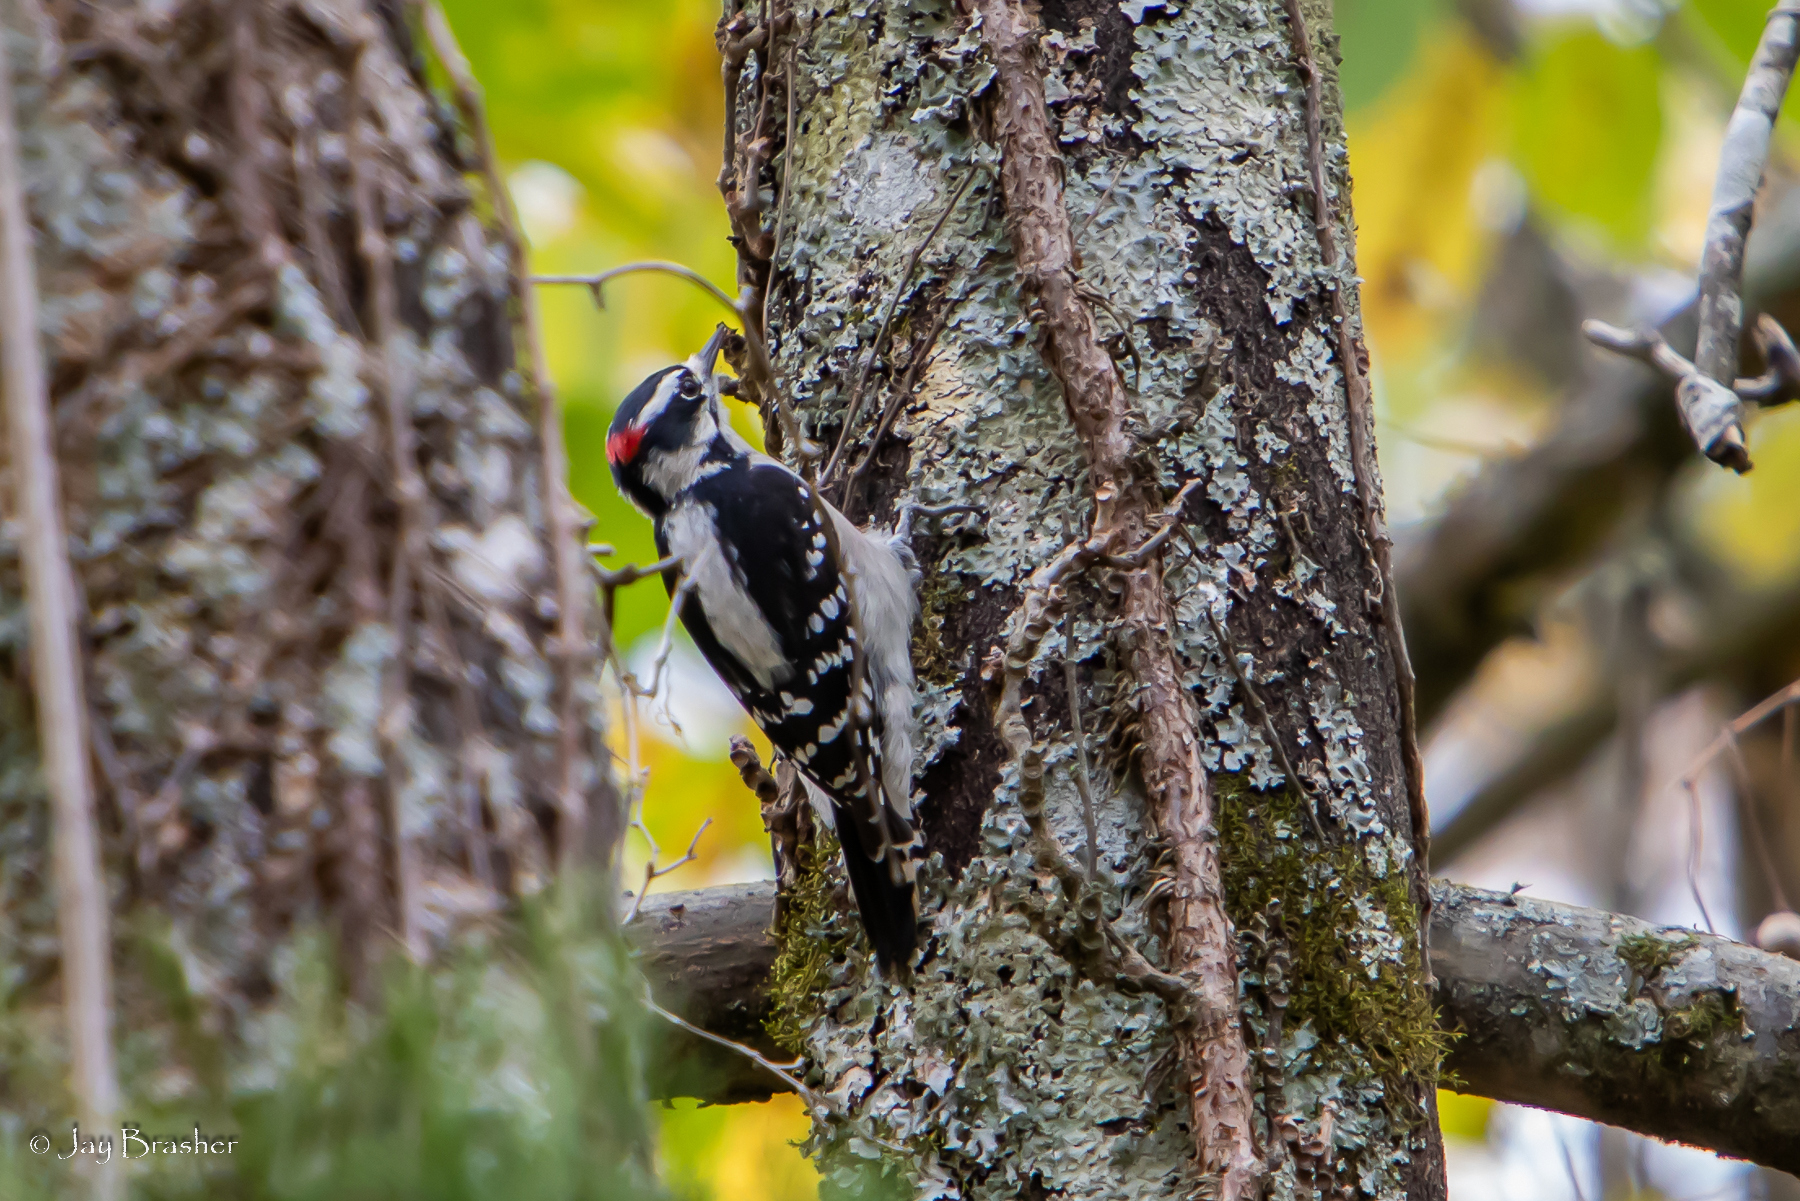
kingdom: Animalia
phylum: Chordata
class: Aves
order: Piciformes
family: Picidae
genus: Dryobates
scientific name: Dryobates pubescens
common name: Downy woodpecker
